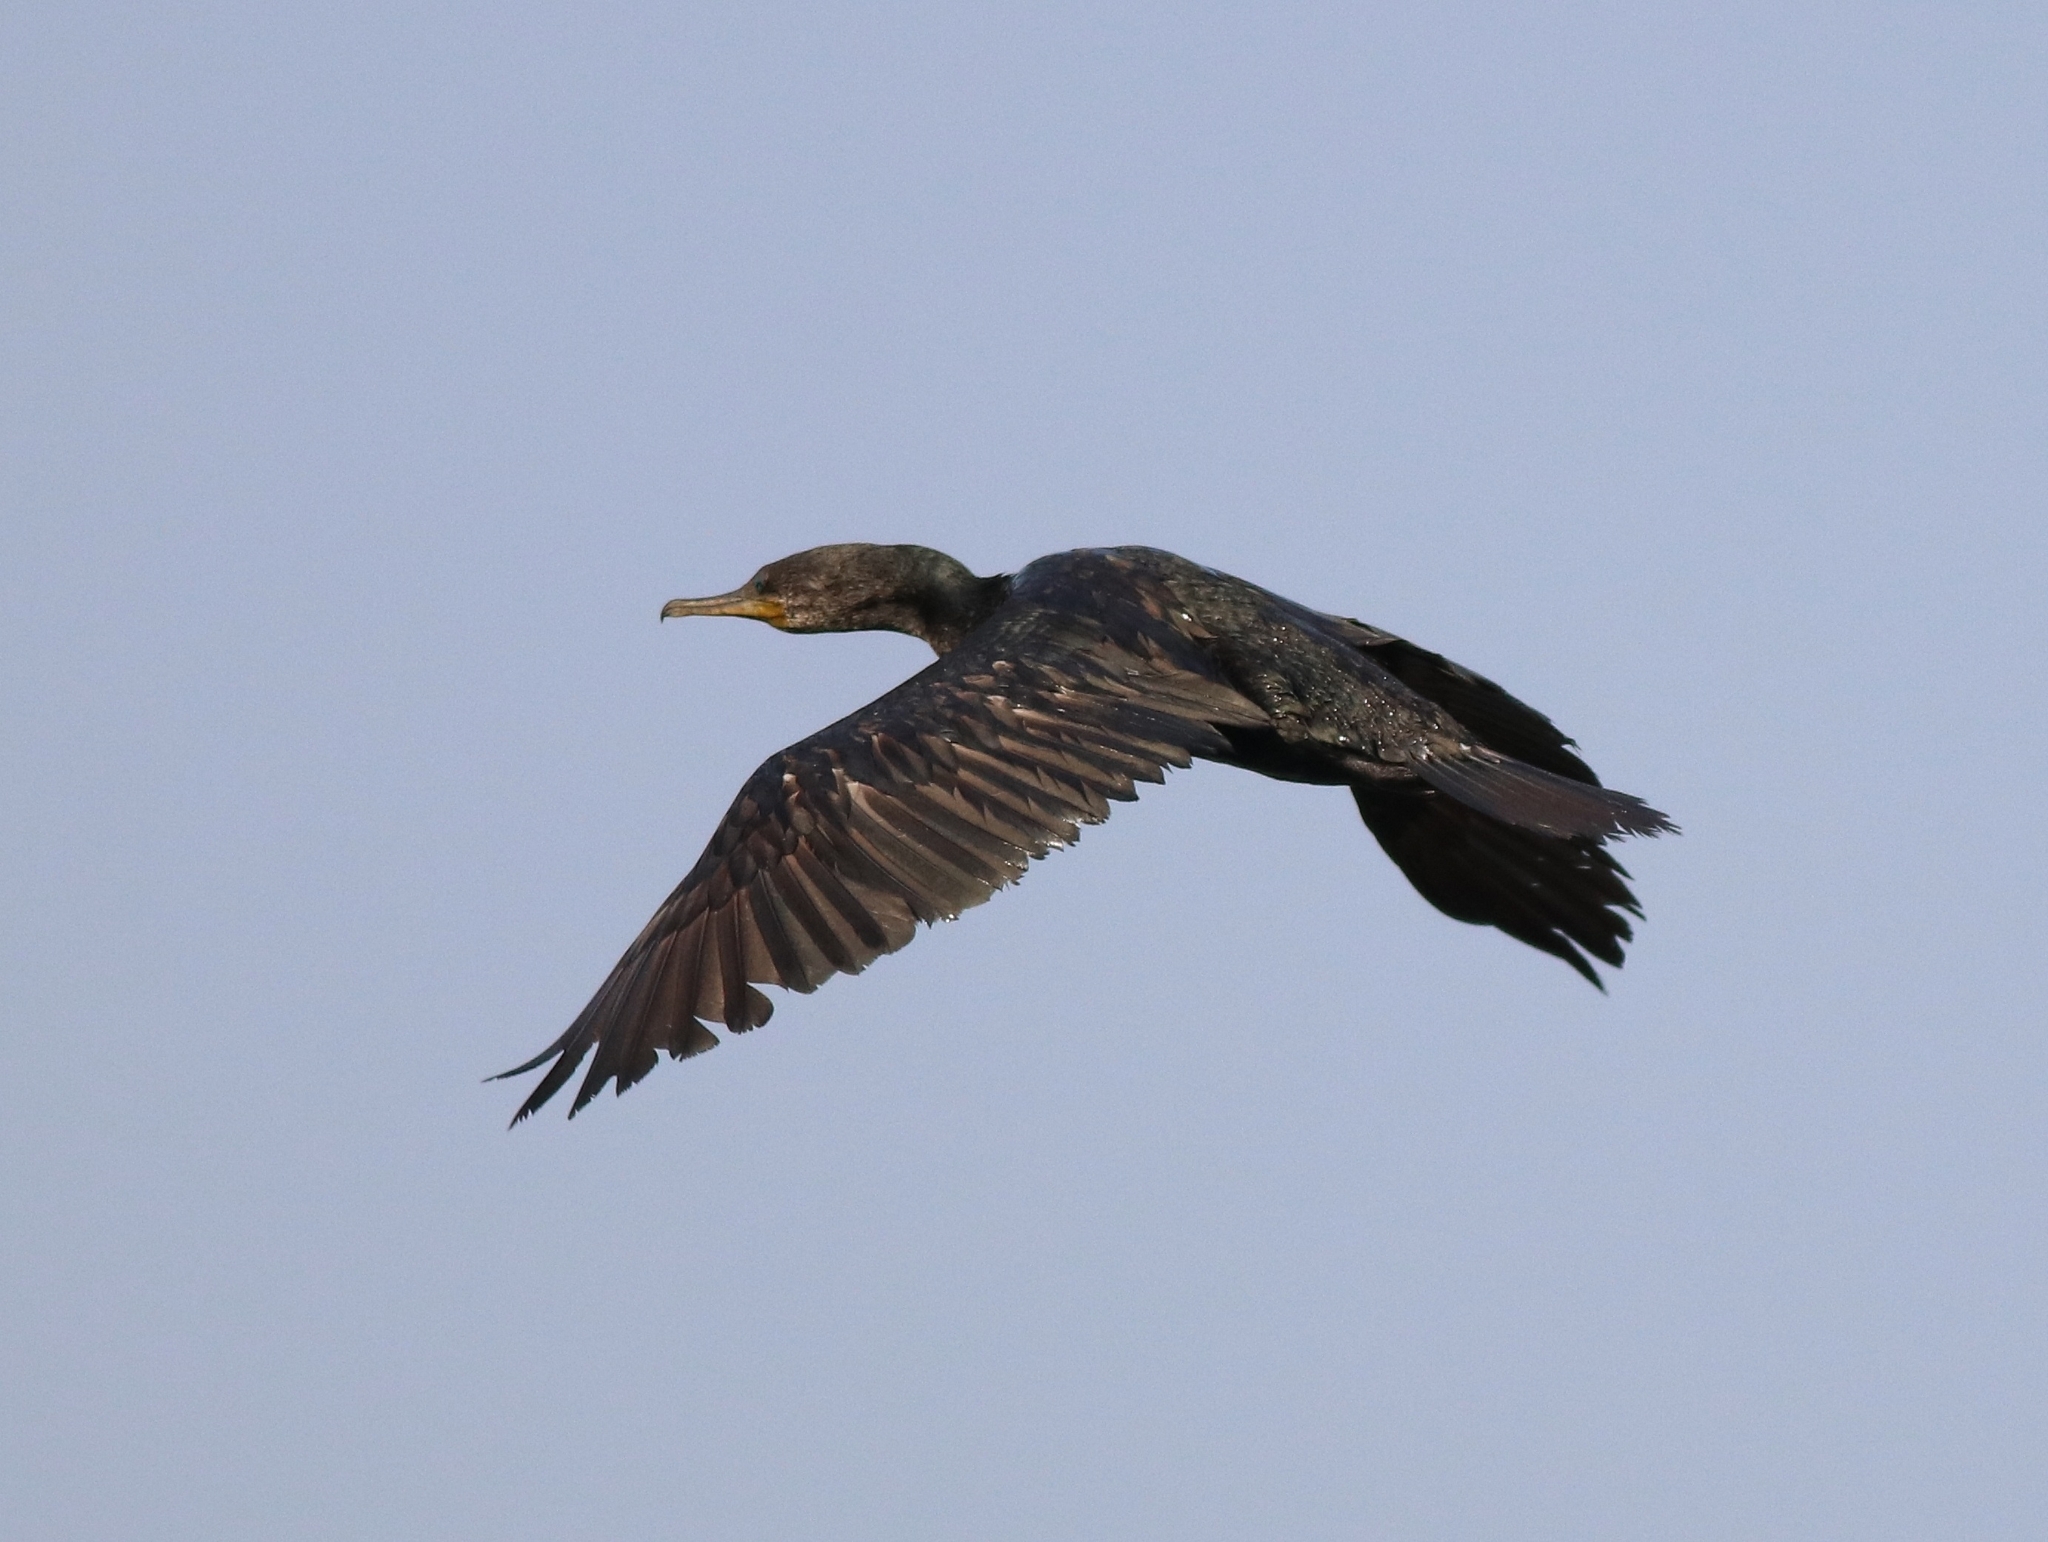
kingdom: Animalia
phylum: Chordata
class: Aves
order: Suliformes
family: Phalacrocoracidae
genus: Phalacrocorax
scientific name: Phalacrocorax fuscicollis
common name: Indian cormorant
